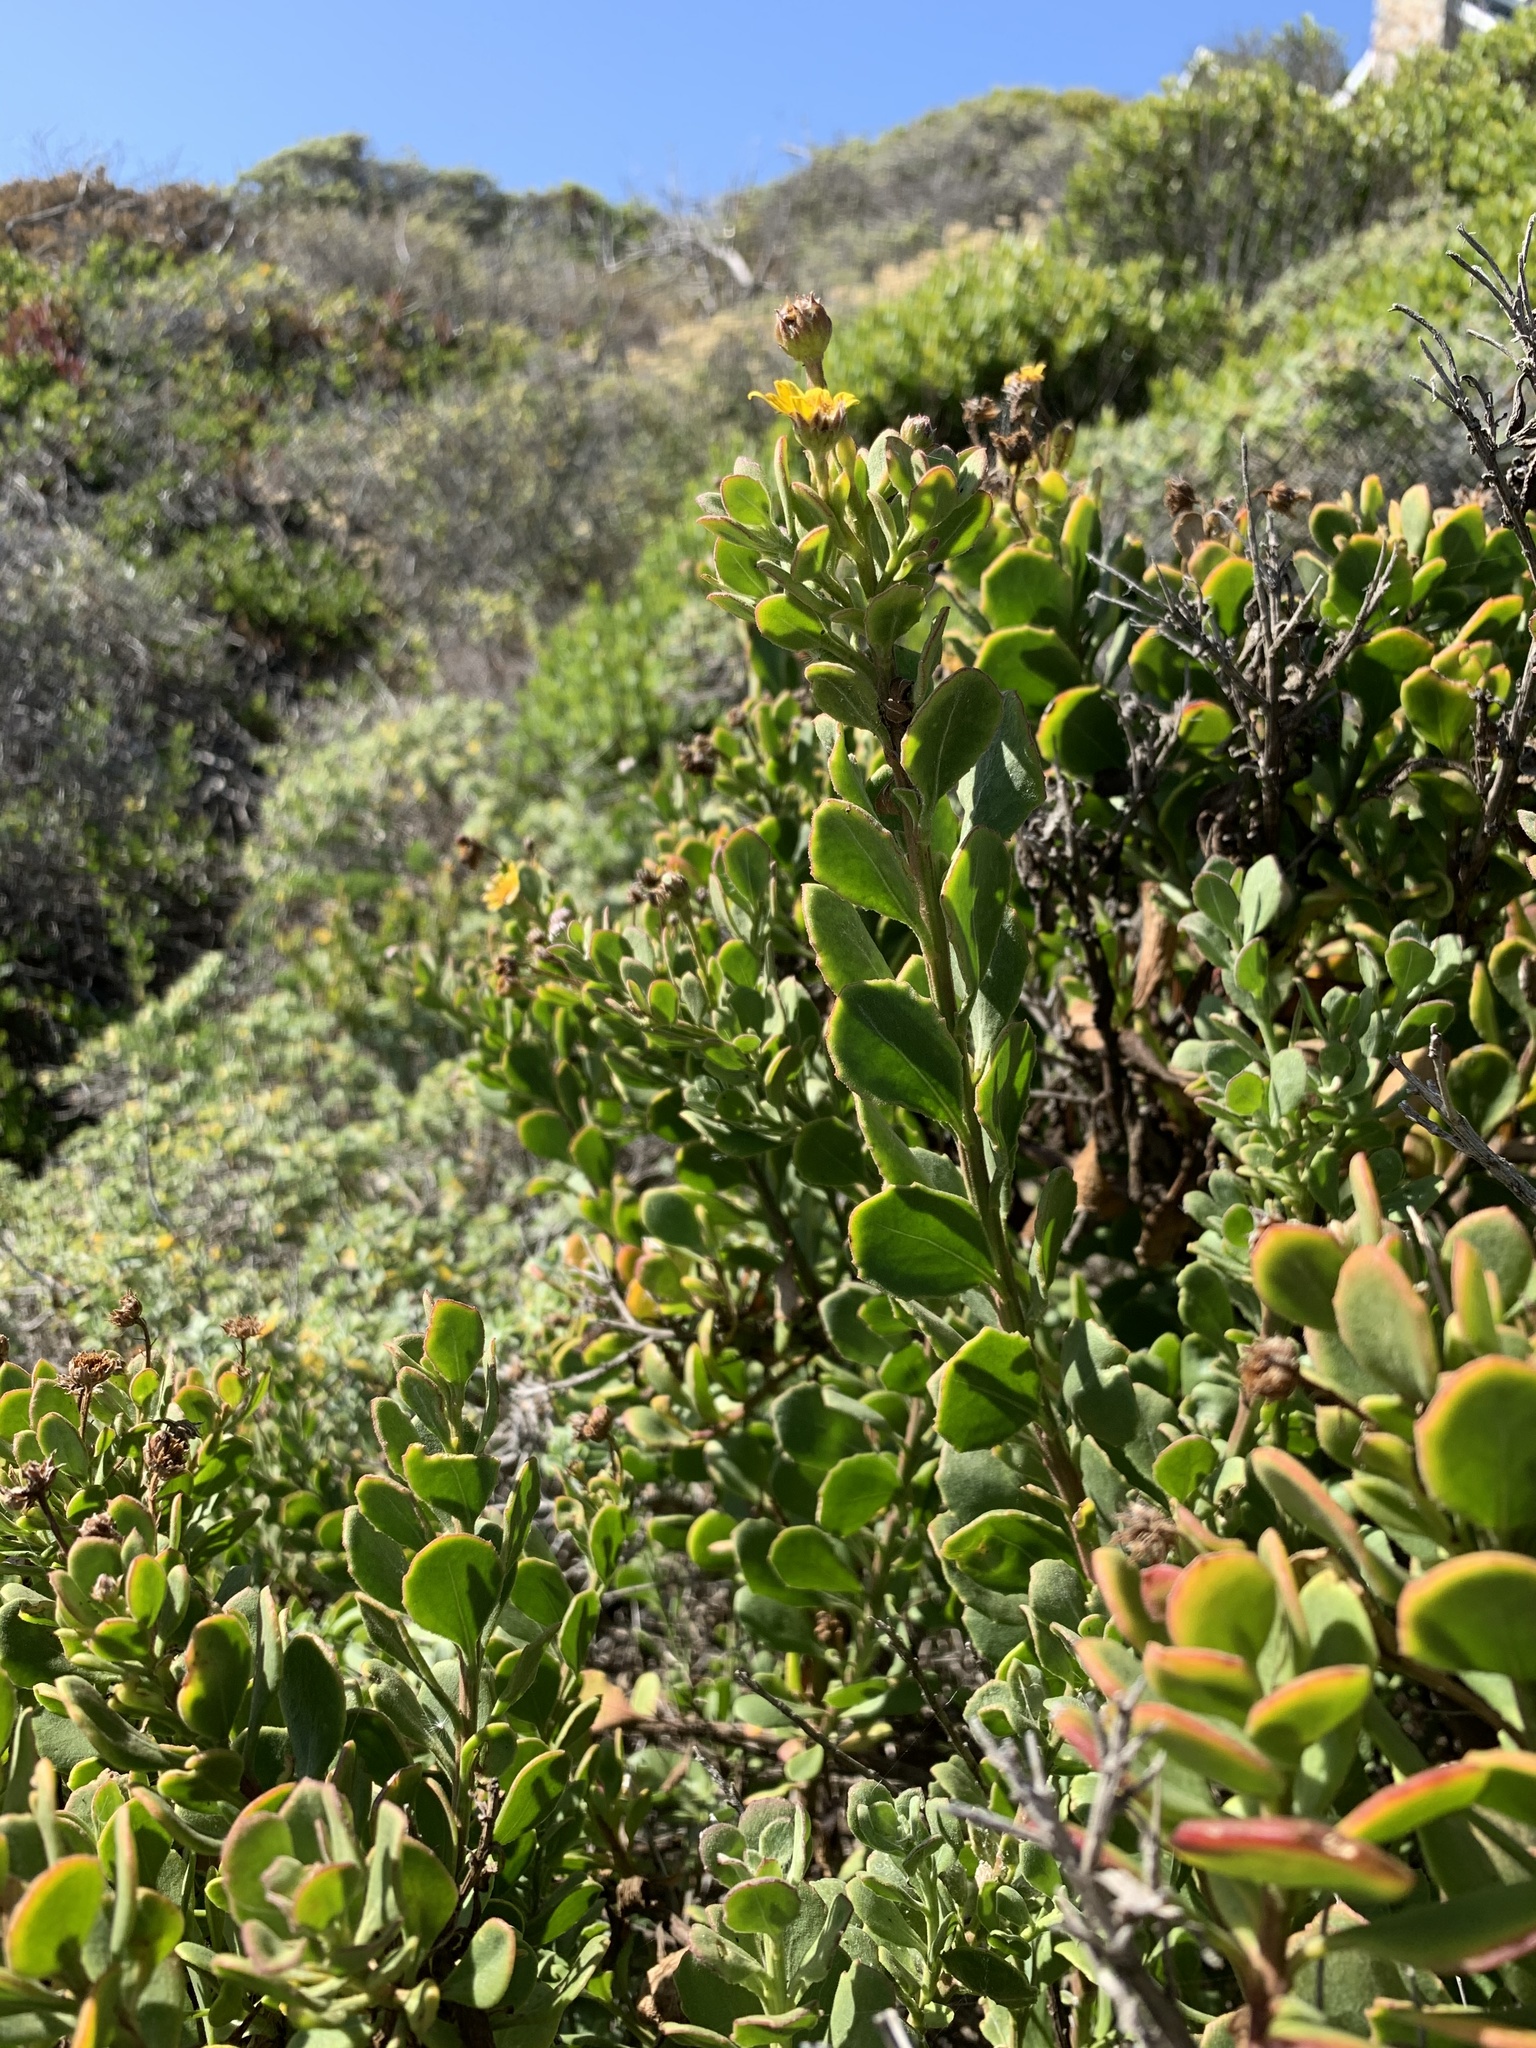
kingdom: Plantae
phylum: Tracheophyta
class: Magnoliopsida
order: Asterales
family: Asteraceae
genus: Osteospermum
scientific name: Osteospermum moniliferum
